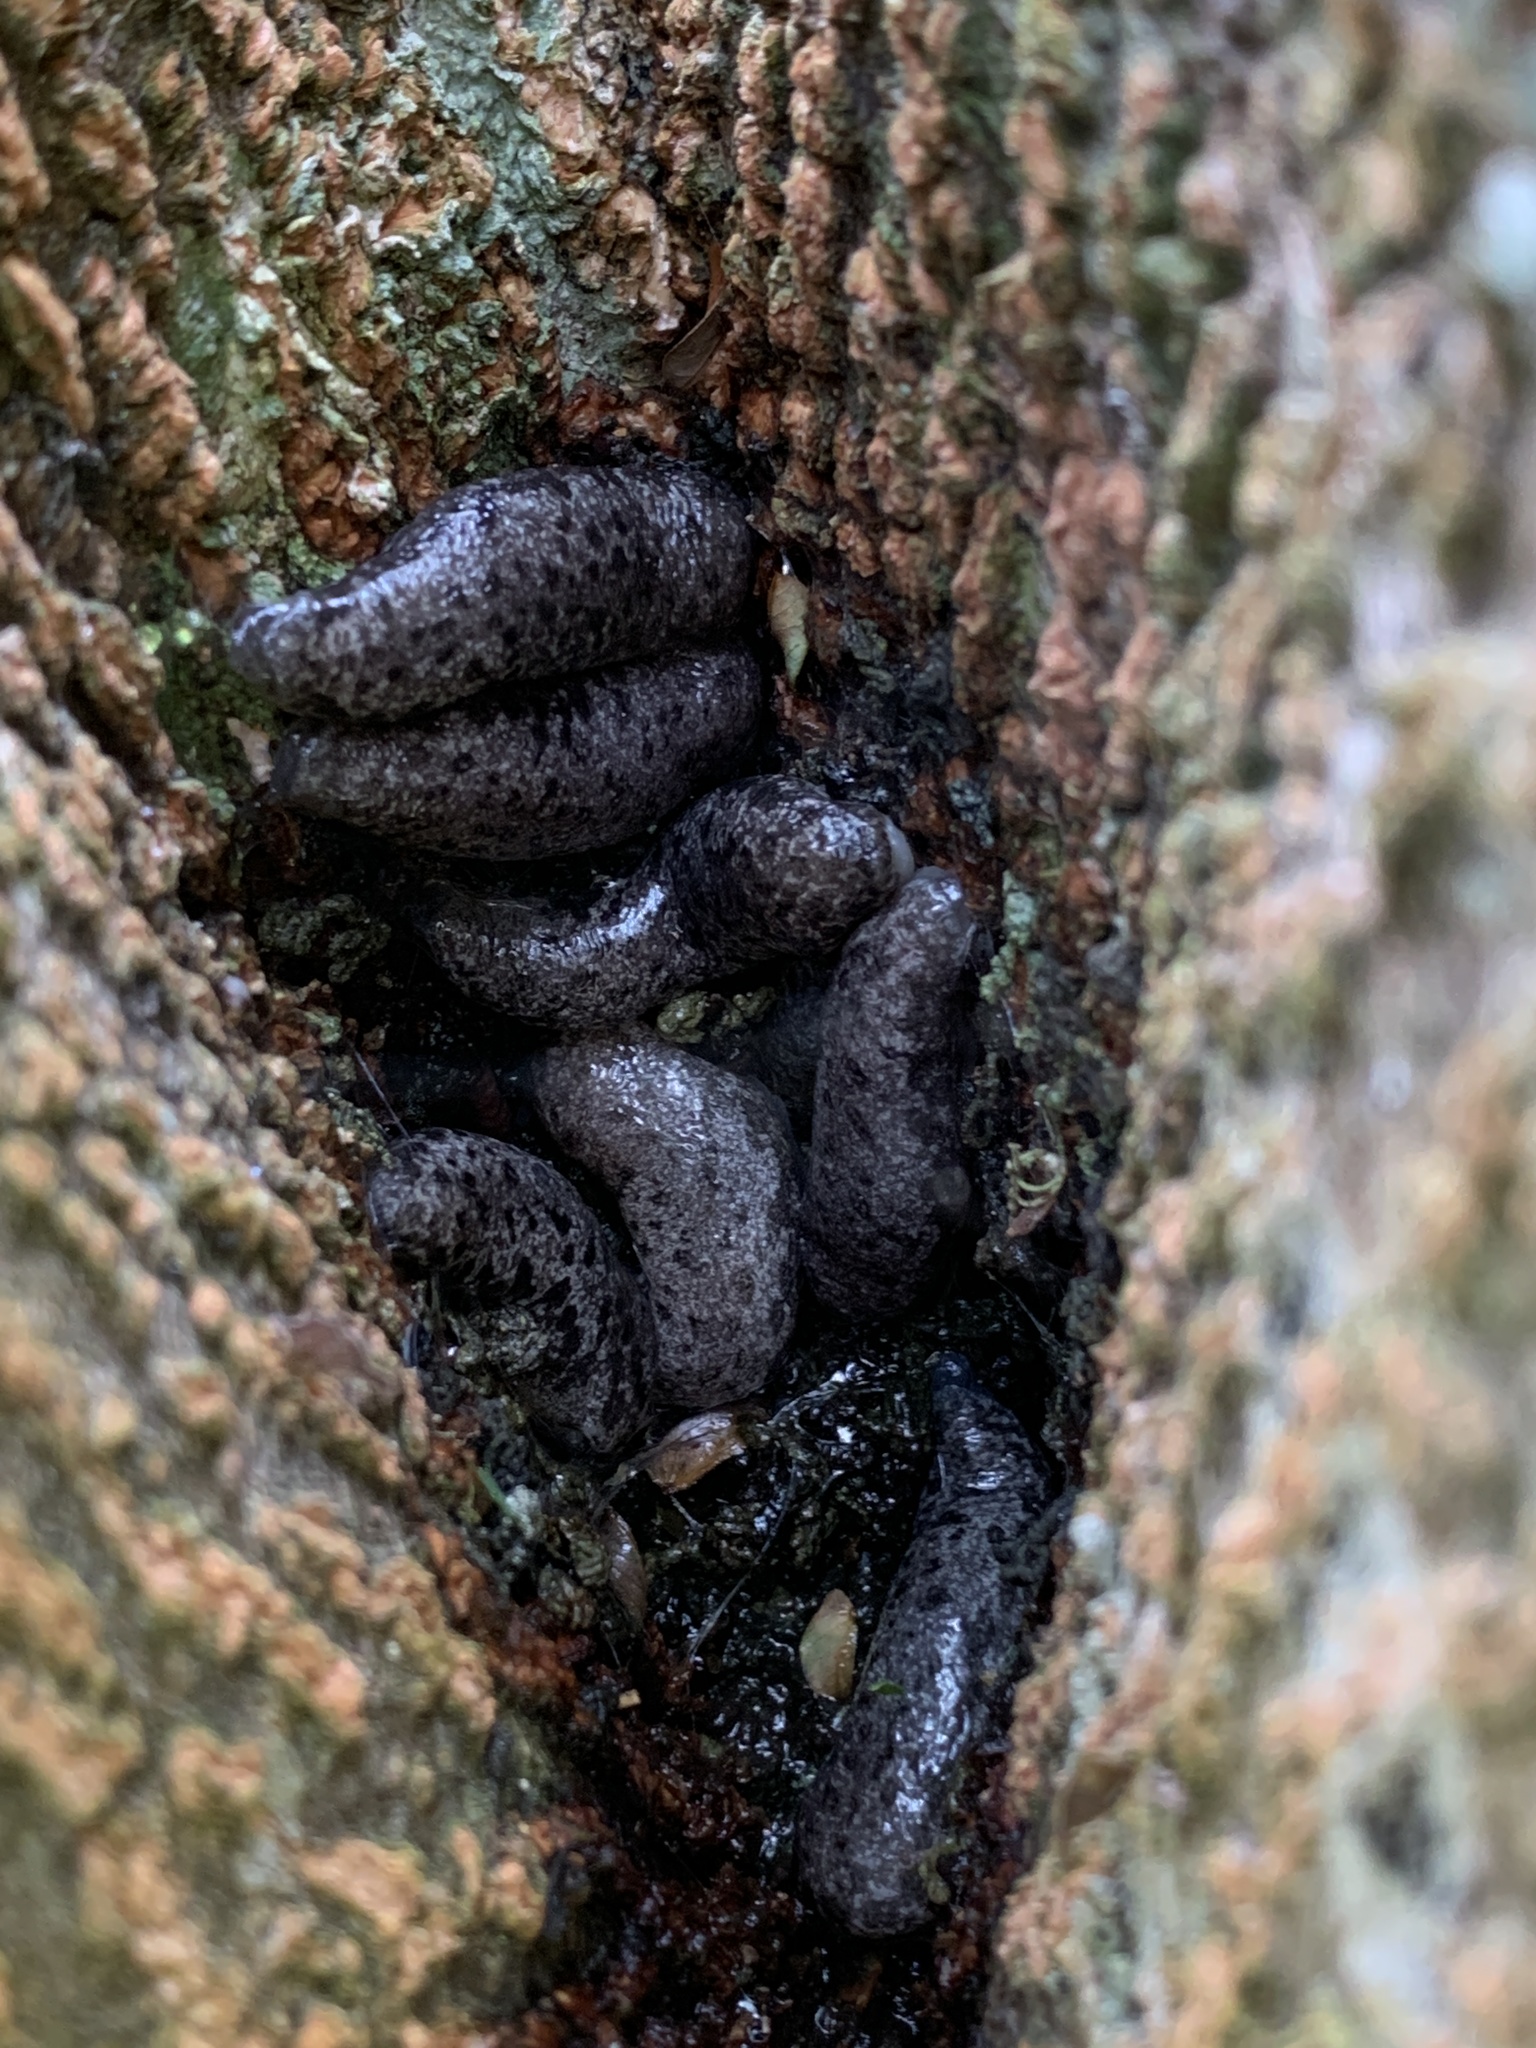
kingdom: Animalia
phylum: Mollusca
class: Gastropoda
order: Stylommatophora
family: Philomycidae
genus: Megapallifera
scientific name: Megapallifera mutabilis
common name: Changeable mantleslug
